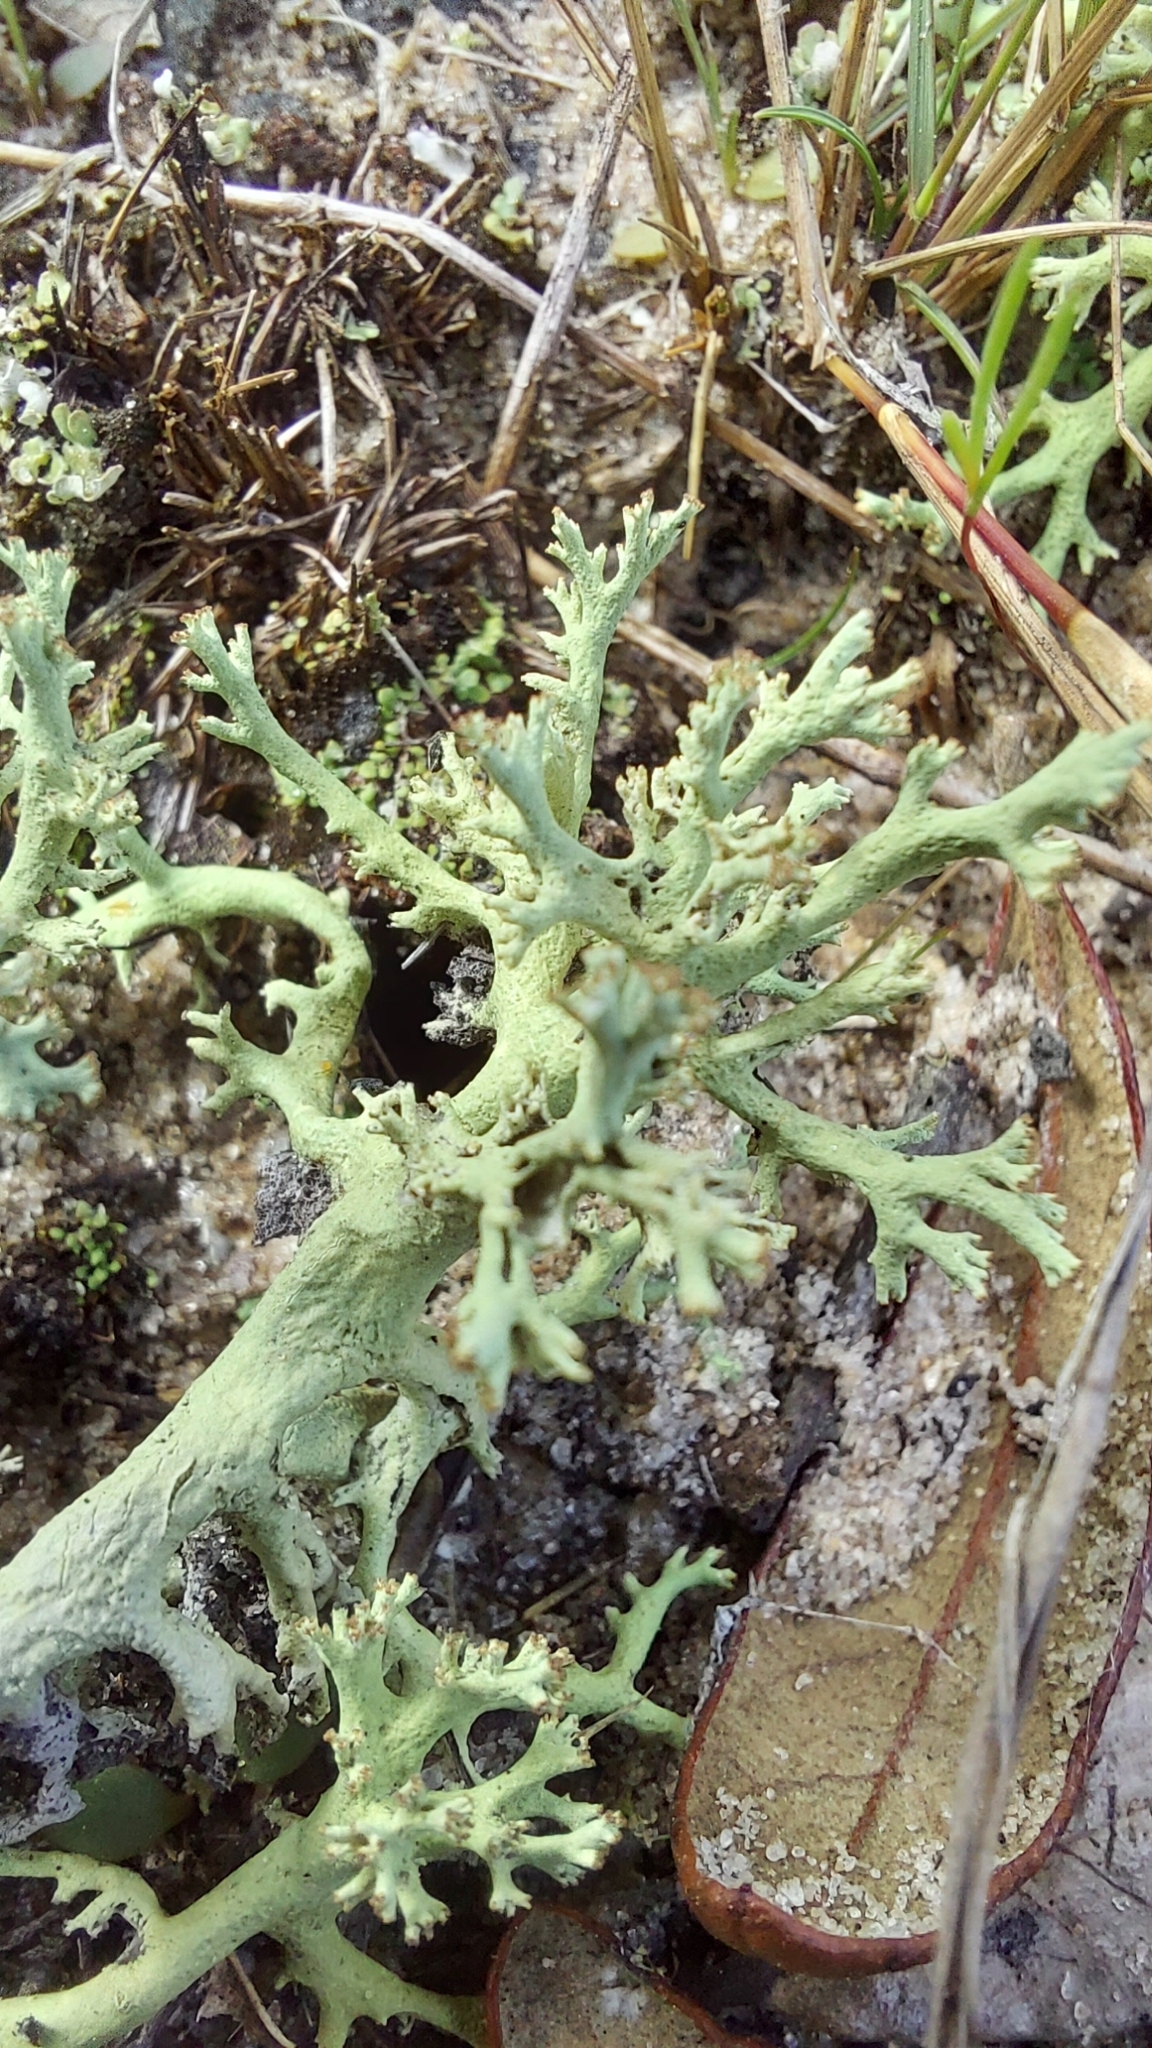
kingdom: Fungi
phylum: Ascomycota
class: Lecanoromycetes
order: Lecanorales
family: Cladoniaceae
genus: Cladonia
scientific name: Cladonia dimorphoclada
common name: Prostrate thorn cladonia
